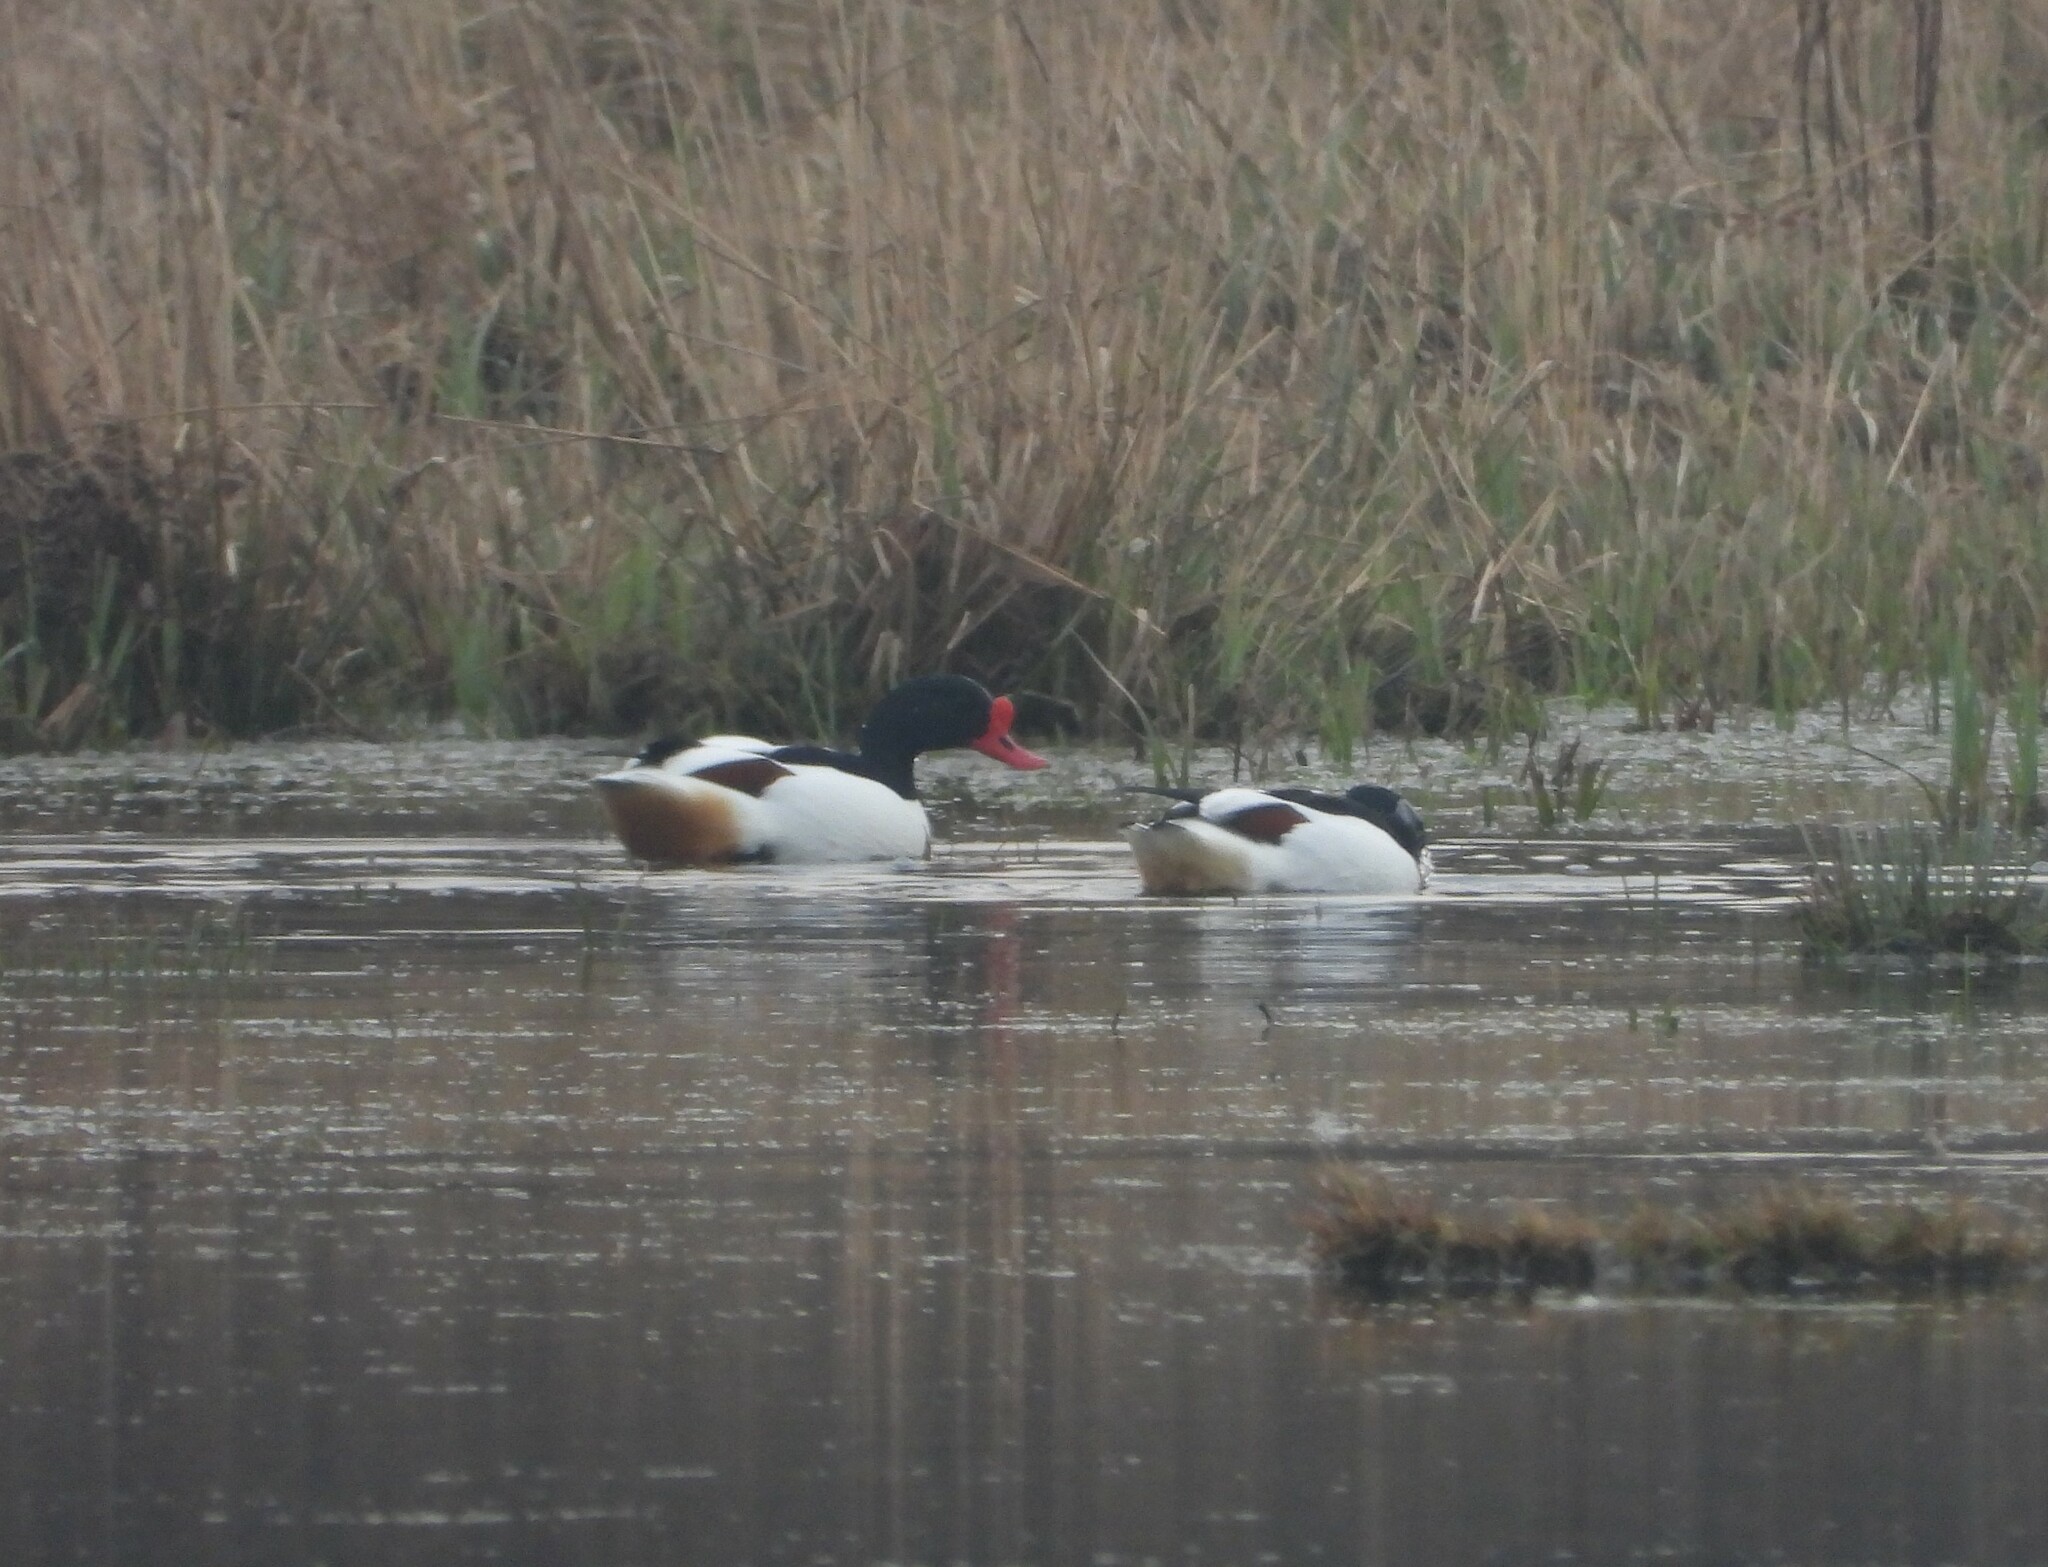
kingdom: Animalia
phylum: Chordata
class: Aves
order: Anseriformes
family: Anatidae
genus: Tadorna
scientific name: Tadorna tadorna
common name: Common shelduck
